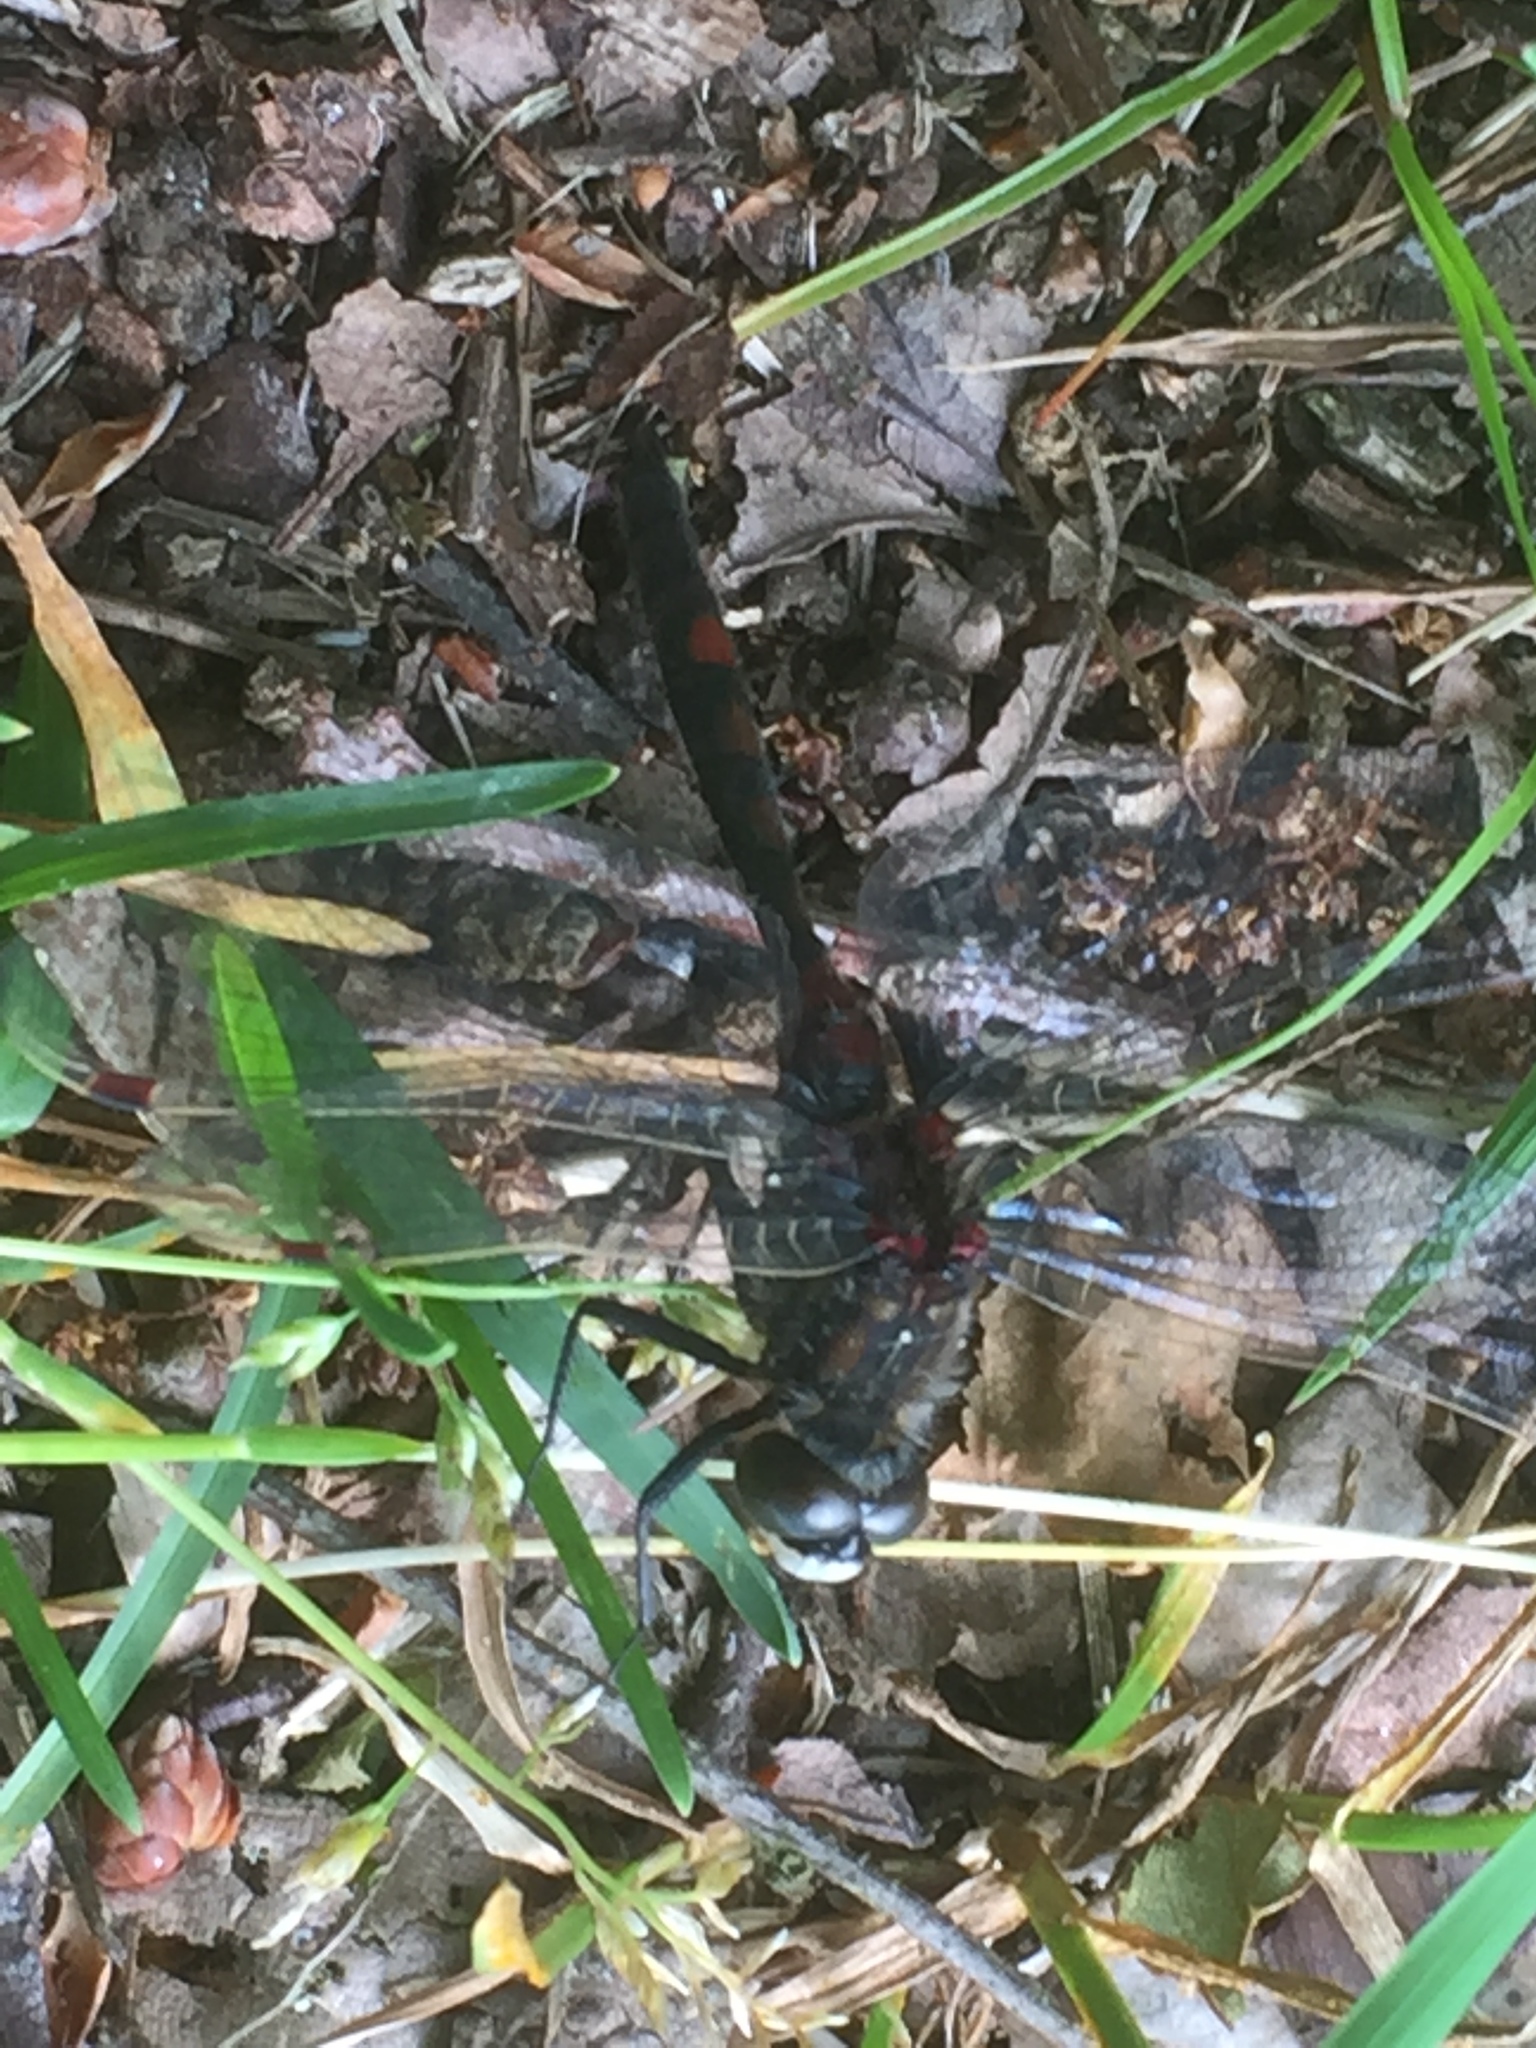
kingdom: Animalia
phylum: Arthropoda
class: Insecta
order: Odonata
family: Libellulidae
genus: Leucorrhinia
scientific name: Leucorrhinia rubicunda
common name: Ruby whiteface
